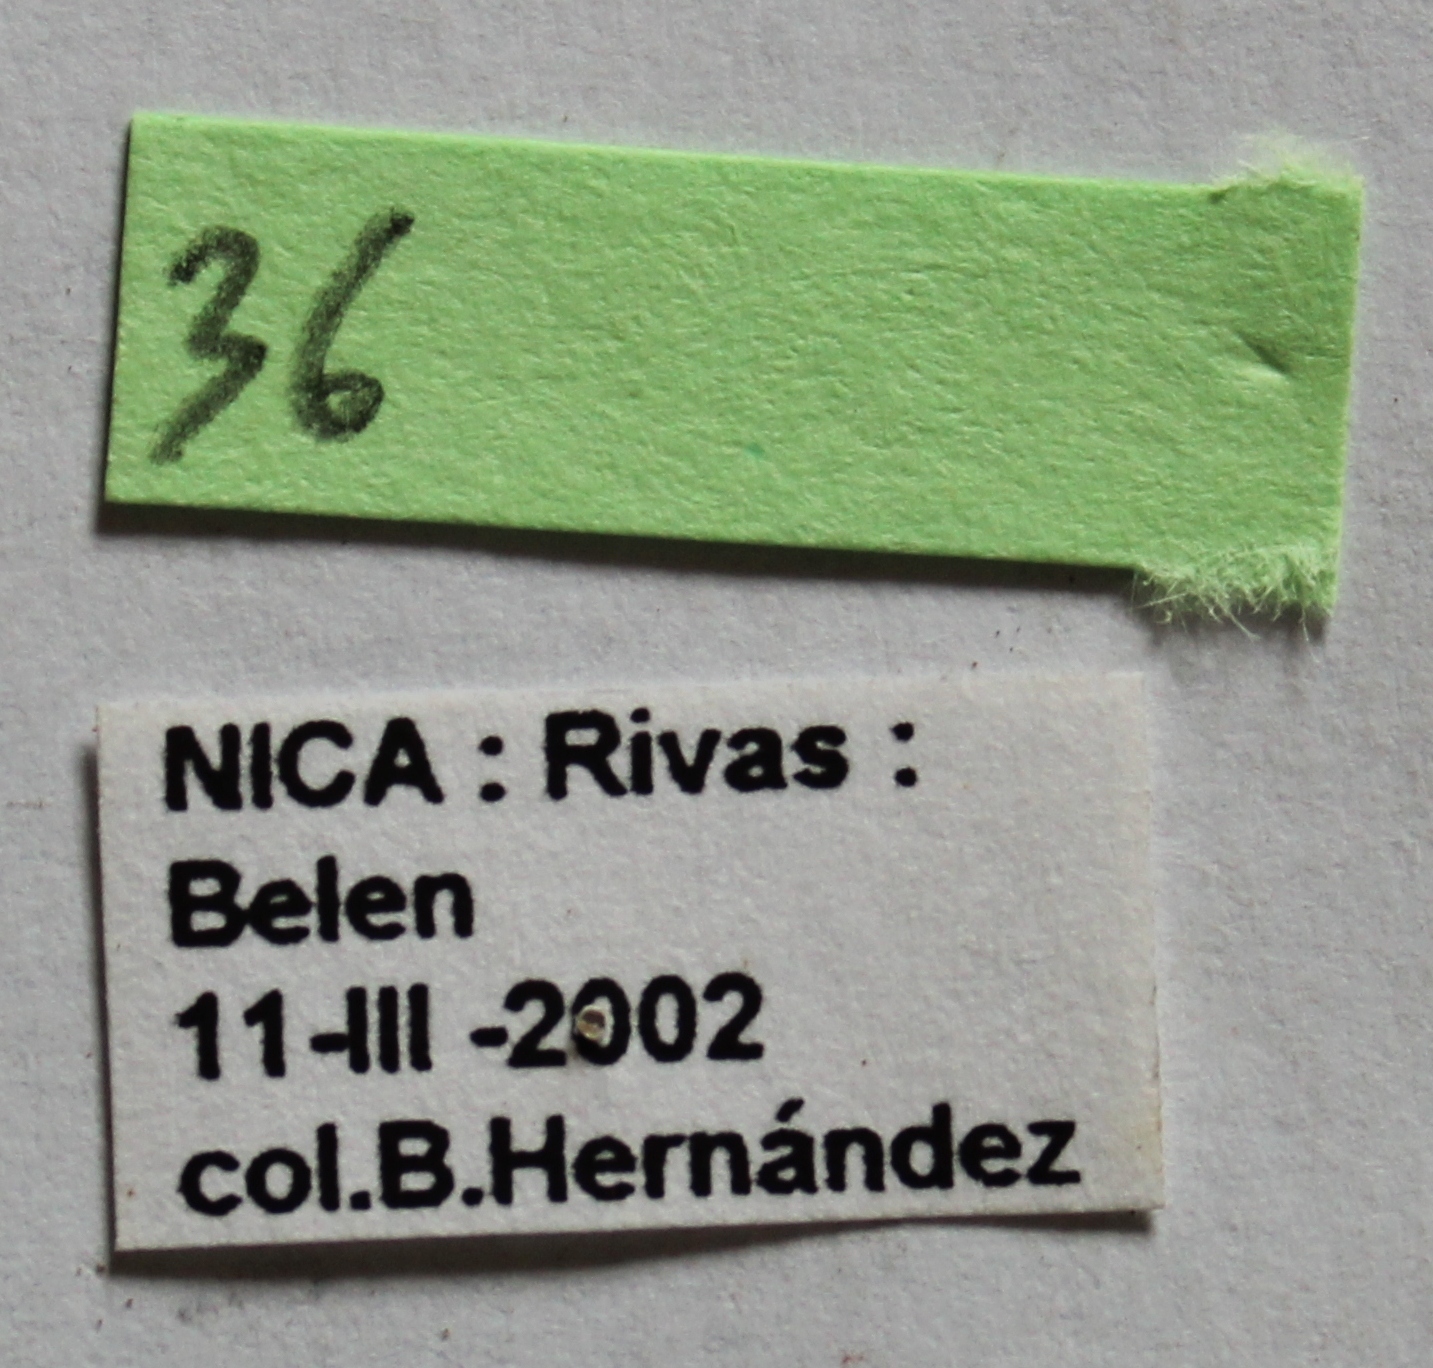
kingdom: Animalia
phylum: Arthropoda
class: Insecta
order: Coleoptera
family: Dermestidae
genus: Dermestes
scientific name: Dermestes carnivorus
